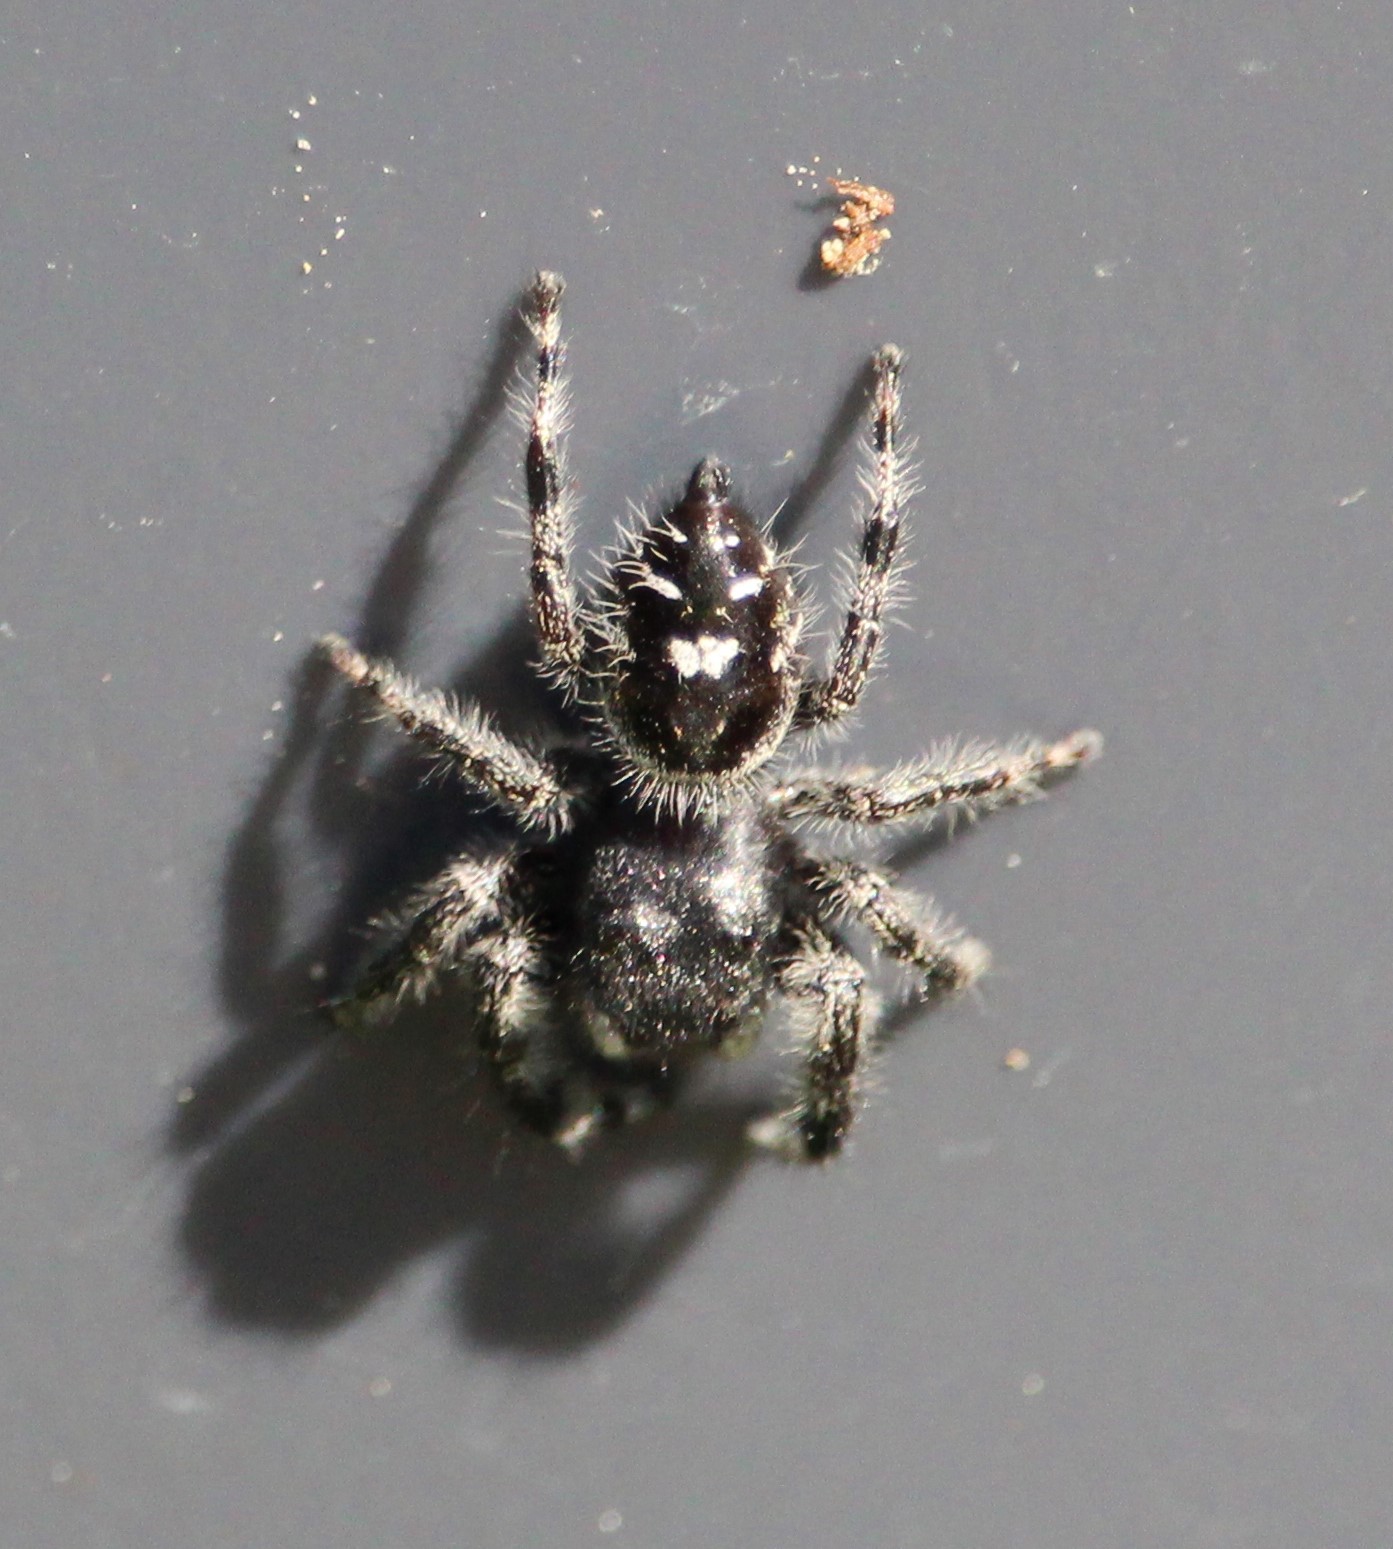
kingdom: Animalia
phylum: Arthropoda
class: Arachnida
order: Araneae
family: Salticidae
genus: Phidippus
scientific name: Phidippus audax
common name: Bold jumper
